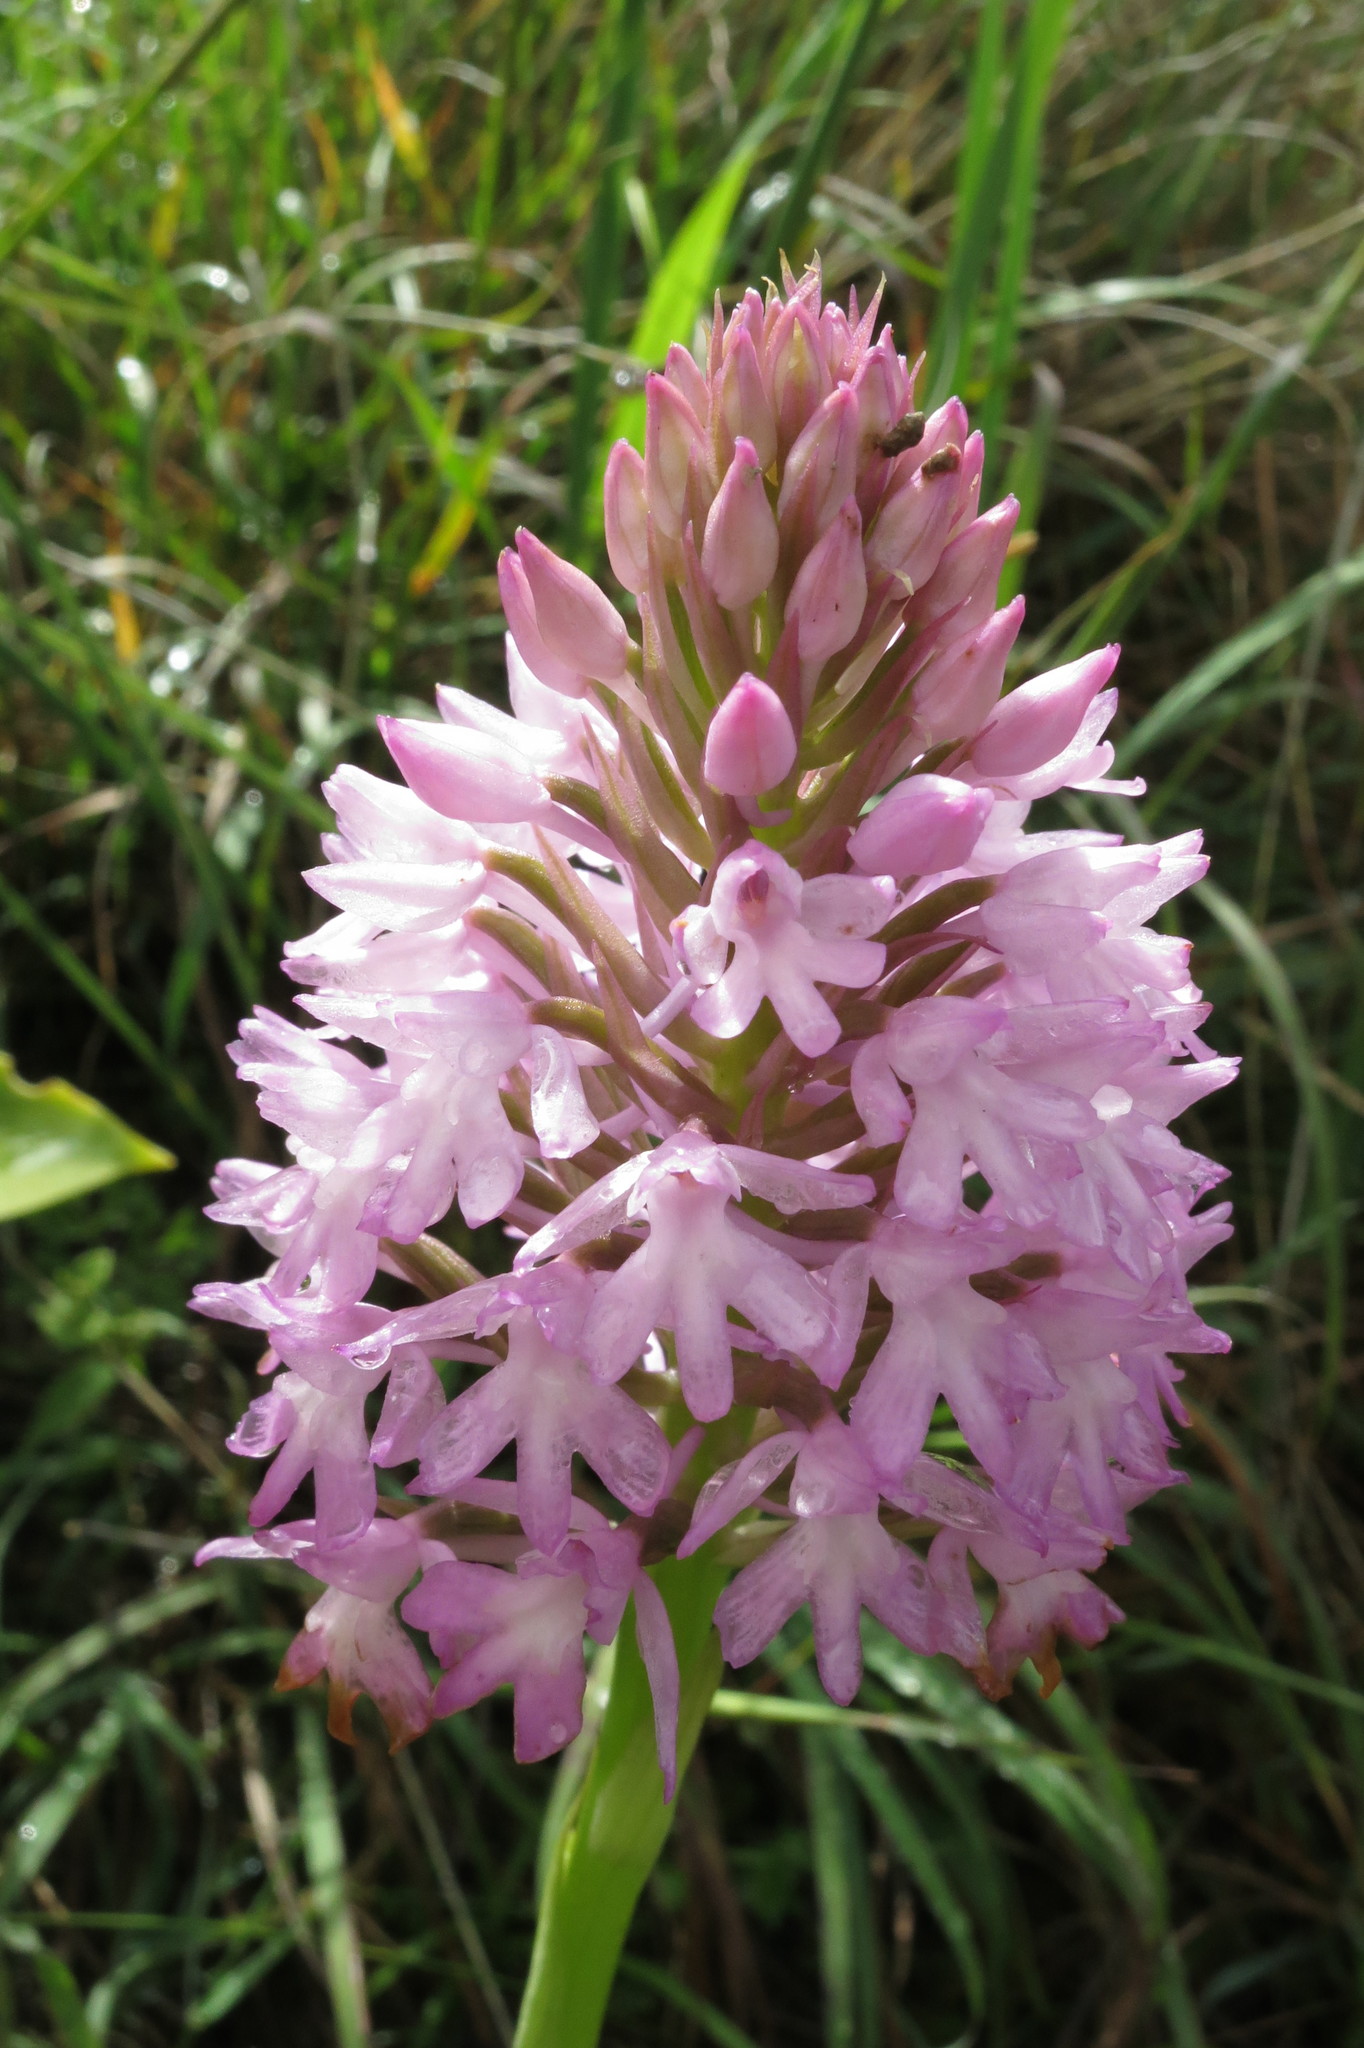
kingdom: Plantae
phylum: Tracheophyta
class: Liliopsida
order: Asparagales
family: Orchidaceae
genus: Anacamptis
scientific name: Anacamptis pyramidalis
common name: Pyramidal orchid
